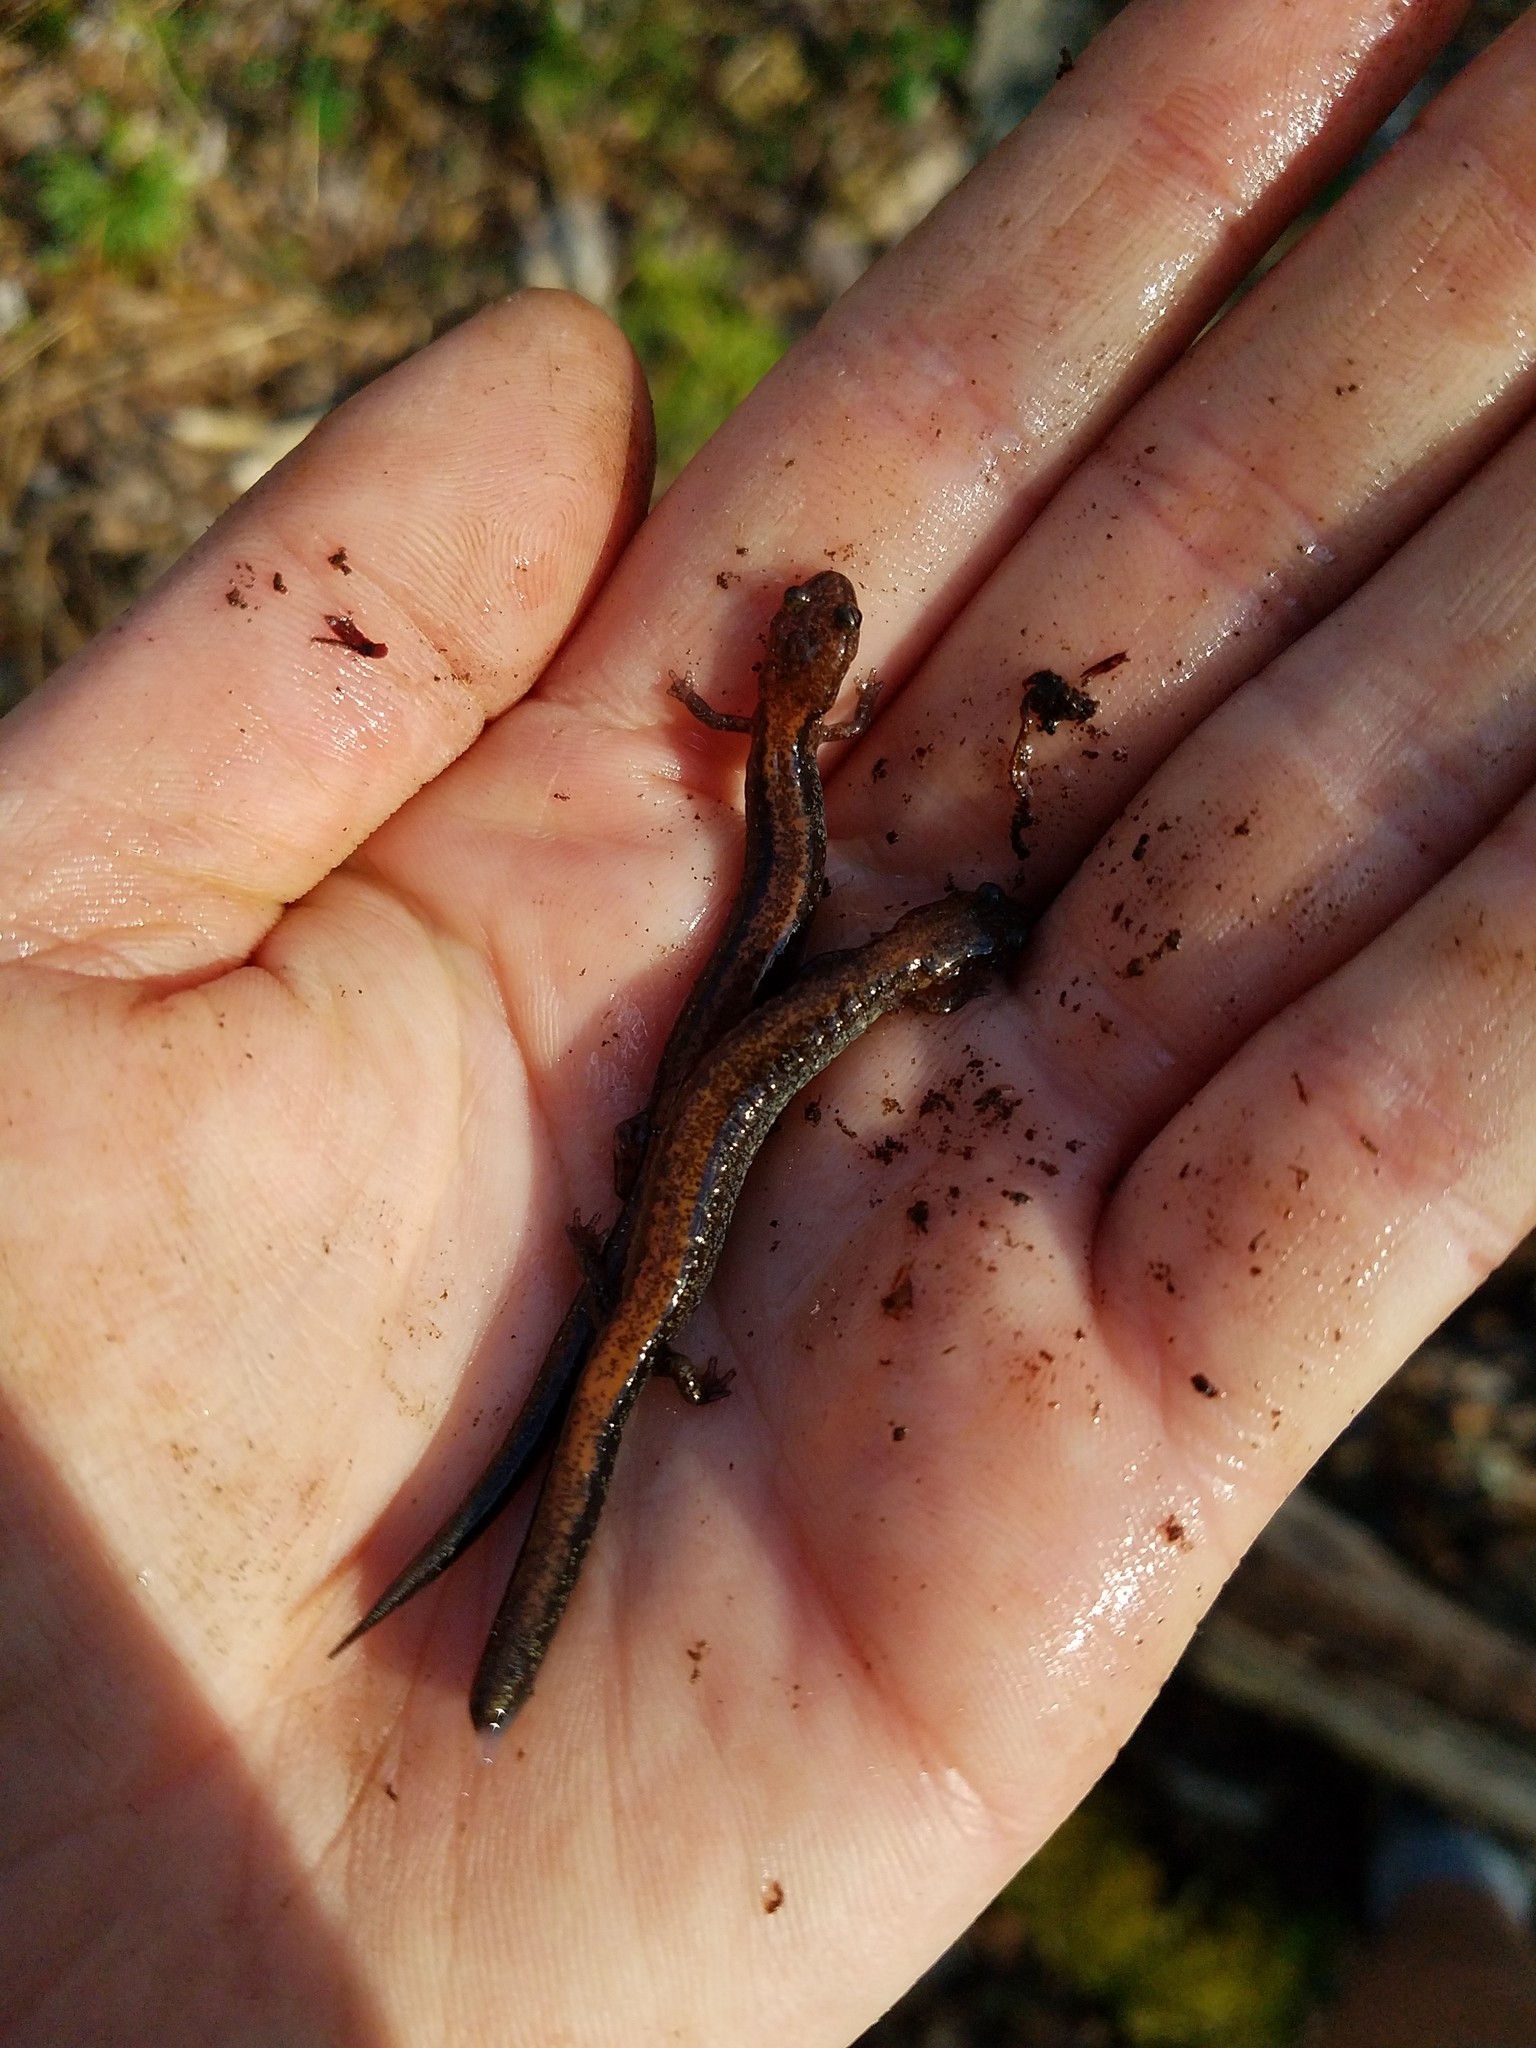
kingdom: Animalia
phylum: Chordata
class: Amphibia
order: Caudata
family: Plethodontidae
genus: Plethodon
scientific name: Plethodon cinereus
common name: Redback salamander
